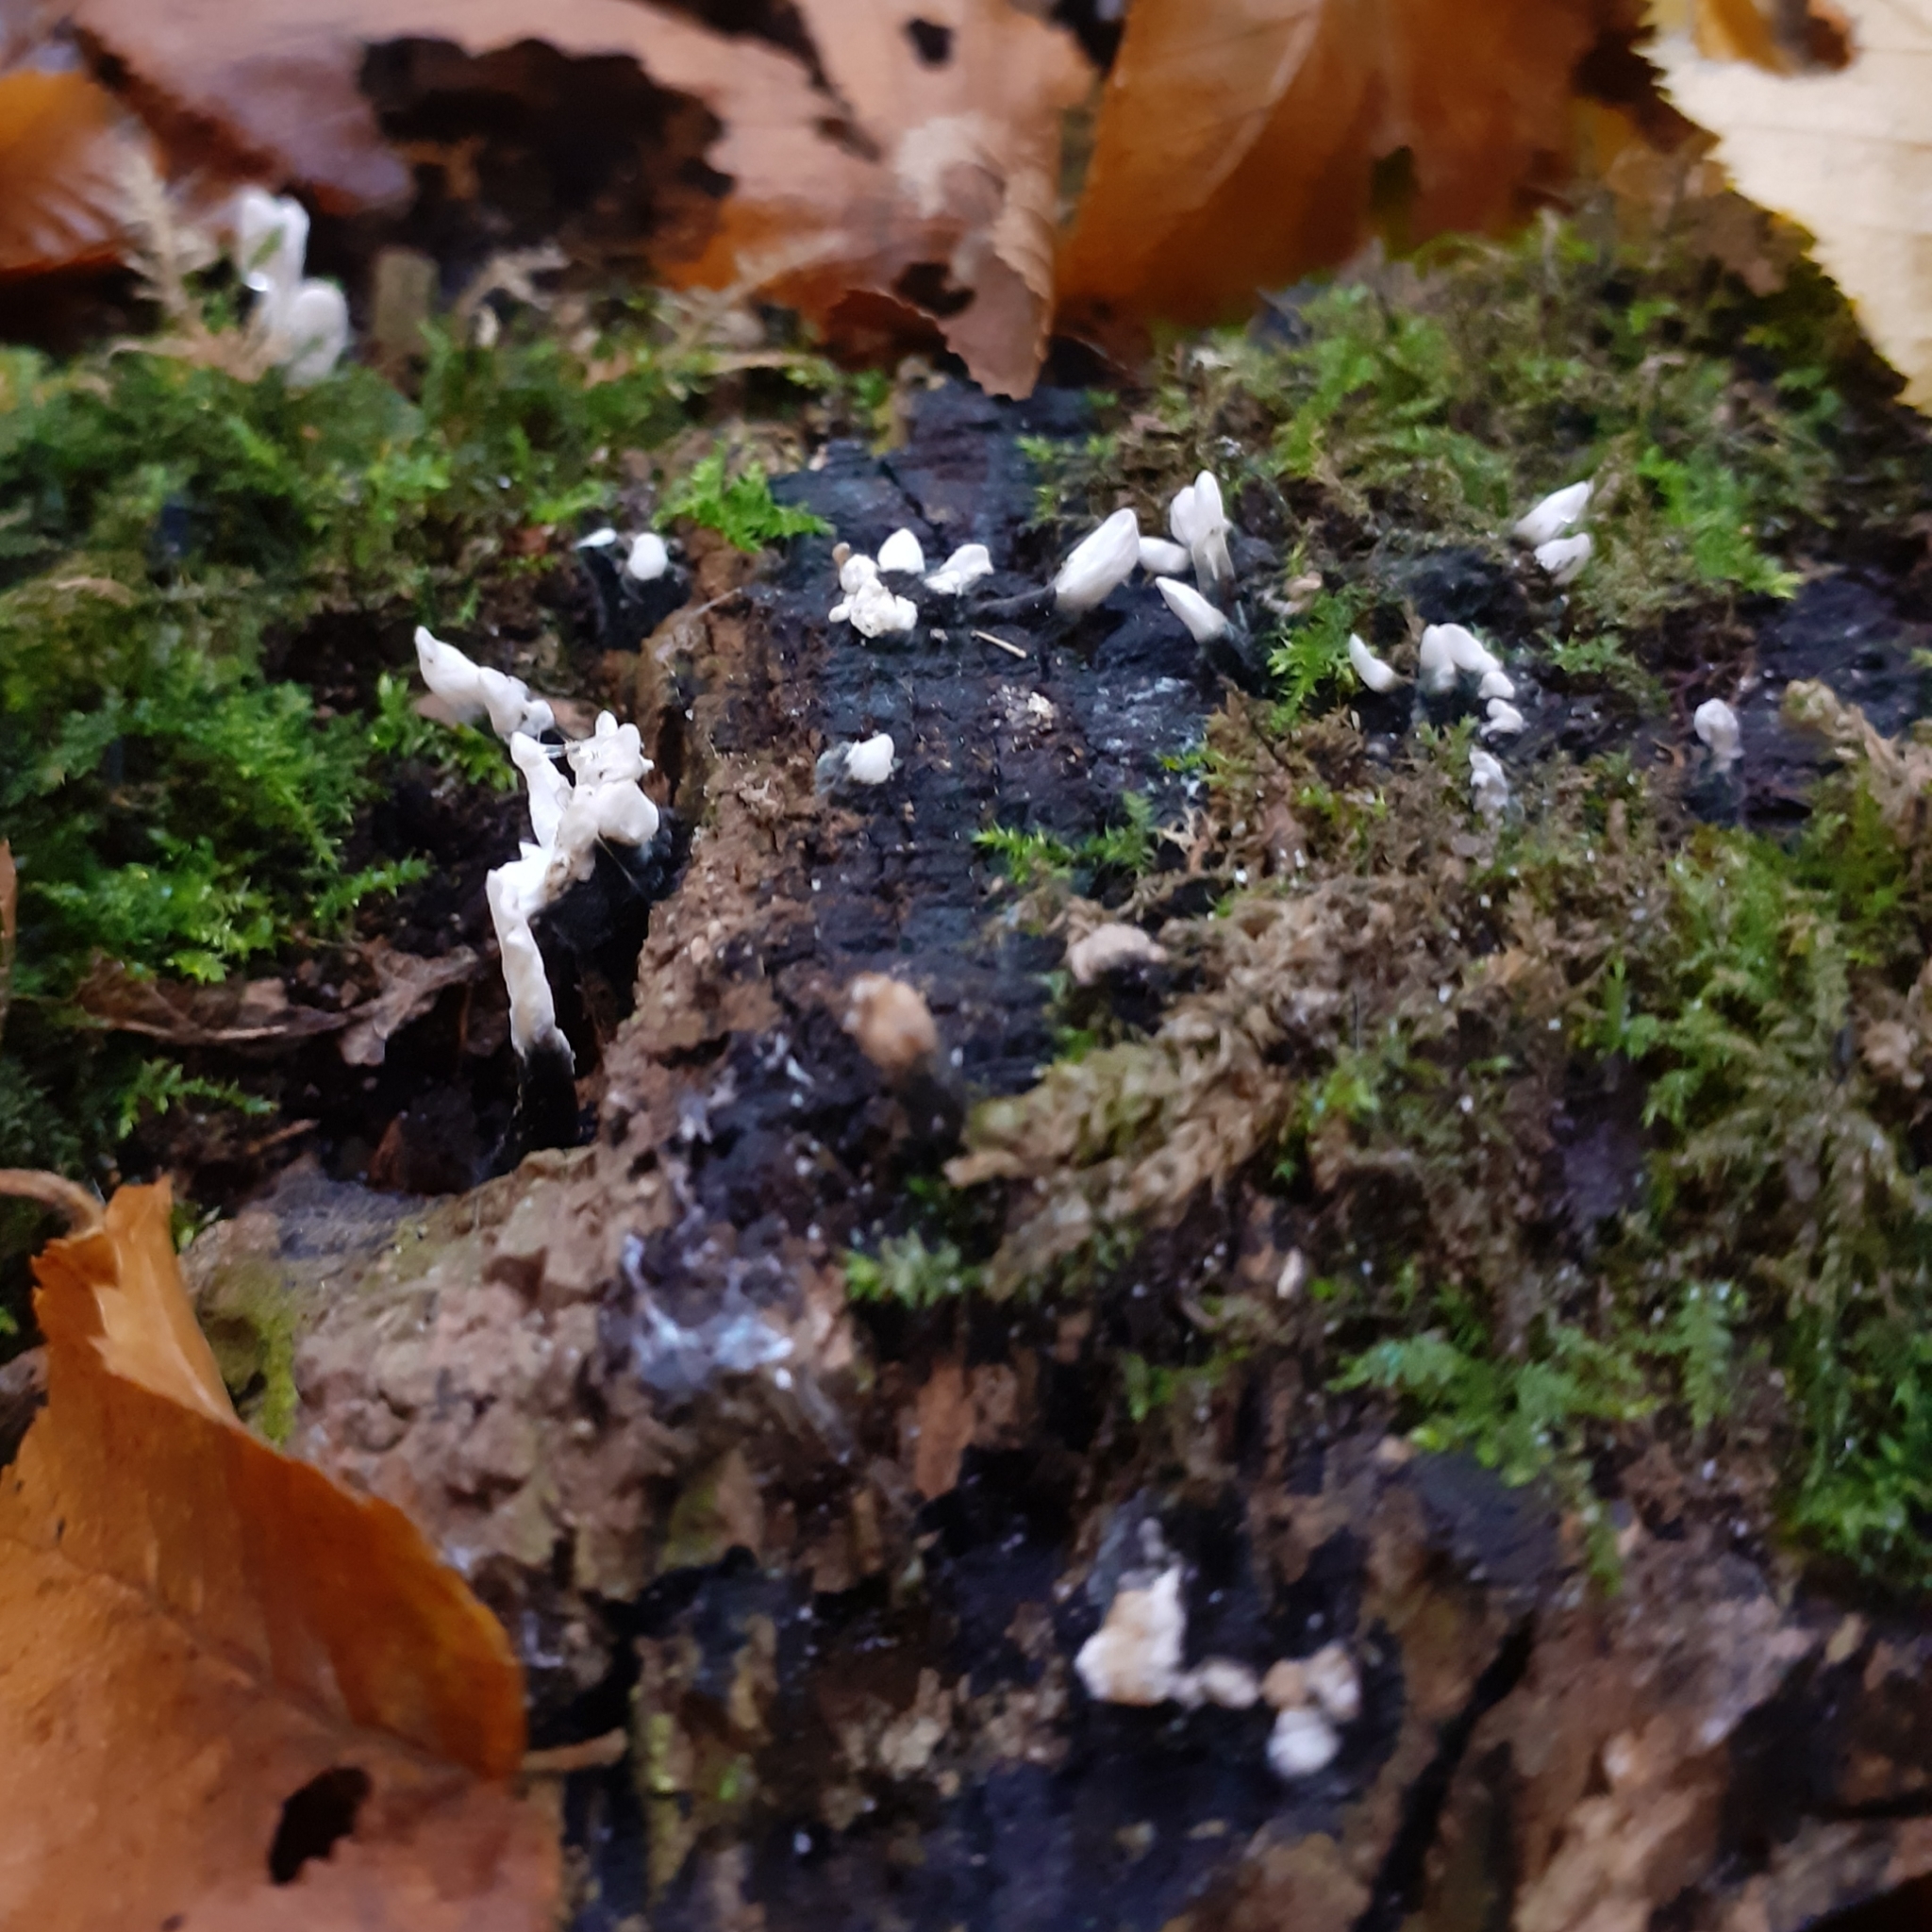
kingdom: Fungi
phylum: Ascomycota
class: Sordariomycetes
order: Xylariales
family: Xylariaceae
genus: Xylaria
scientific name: Xylaria hypoxylon
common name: Candle-snuff fungus
